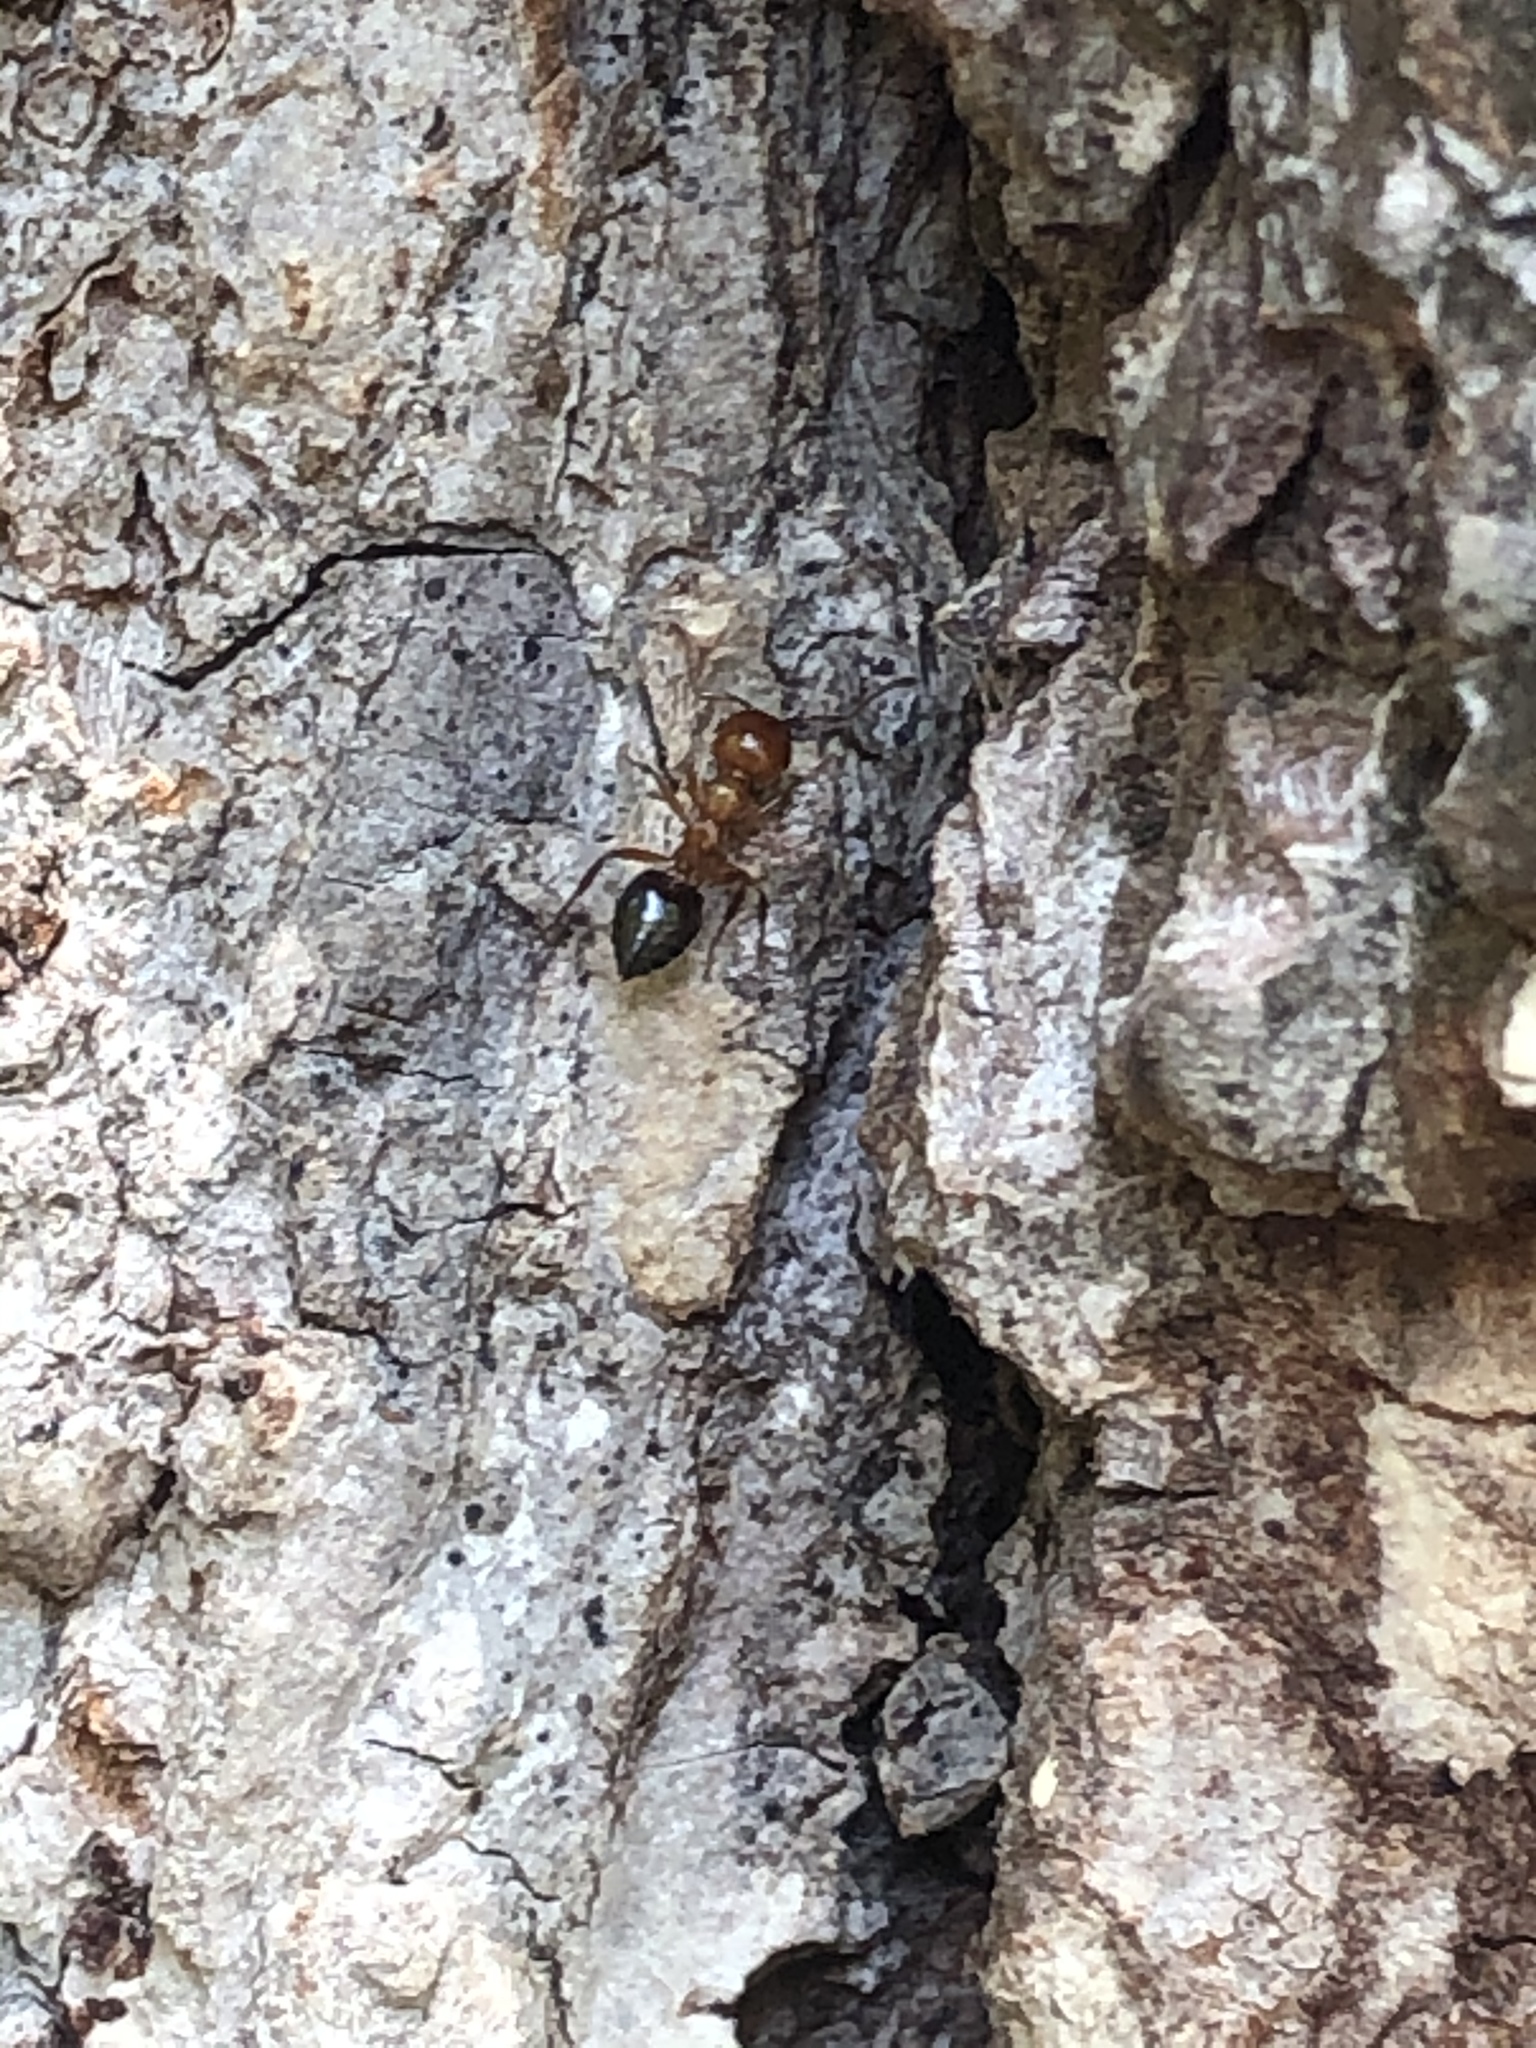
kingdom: Animalia
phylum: Arthropoda
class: Insecta
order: Hymenoptera
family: Formicidae
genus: Crematogaster
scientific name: Crematogaster laeviuscula
